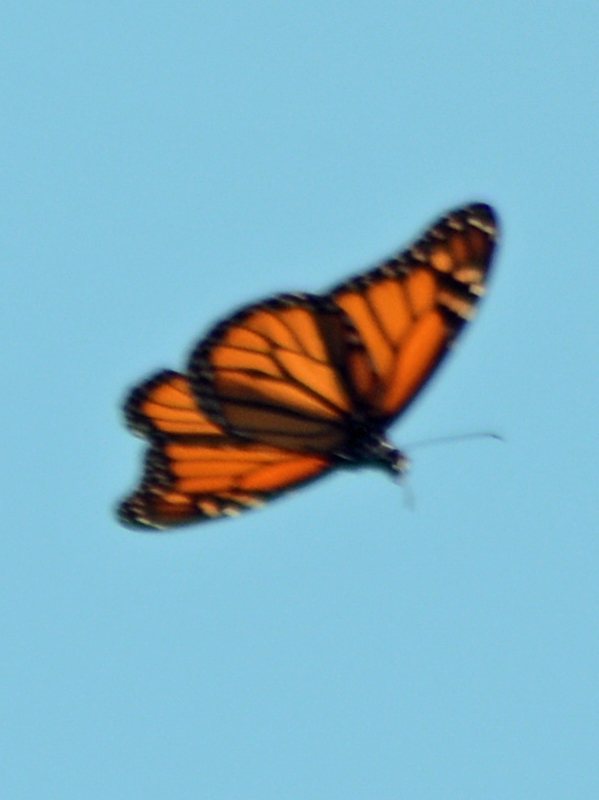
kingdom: Animalia
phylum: Arthropoda
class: Insecta
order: Lepidoptera
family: Nymphalidae
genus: Danaus
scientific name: Danaus plexippus
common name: Monarch
